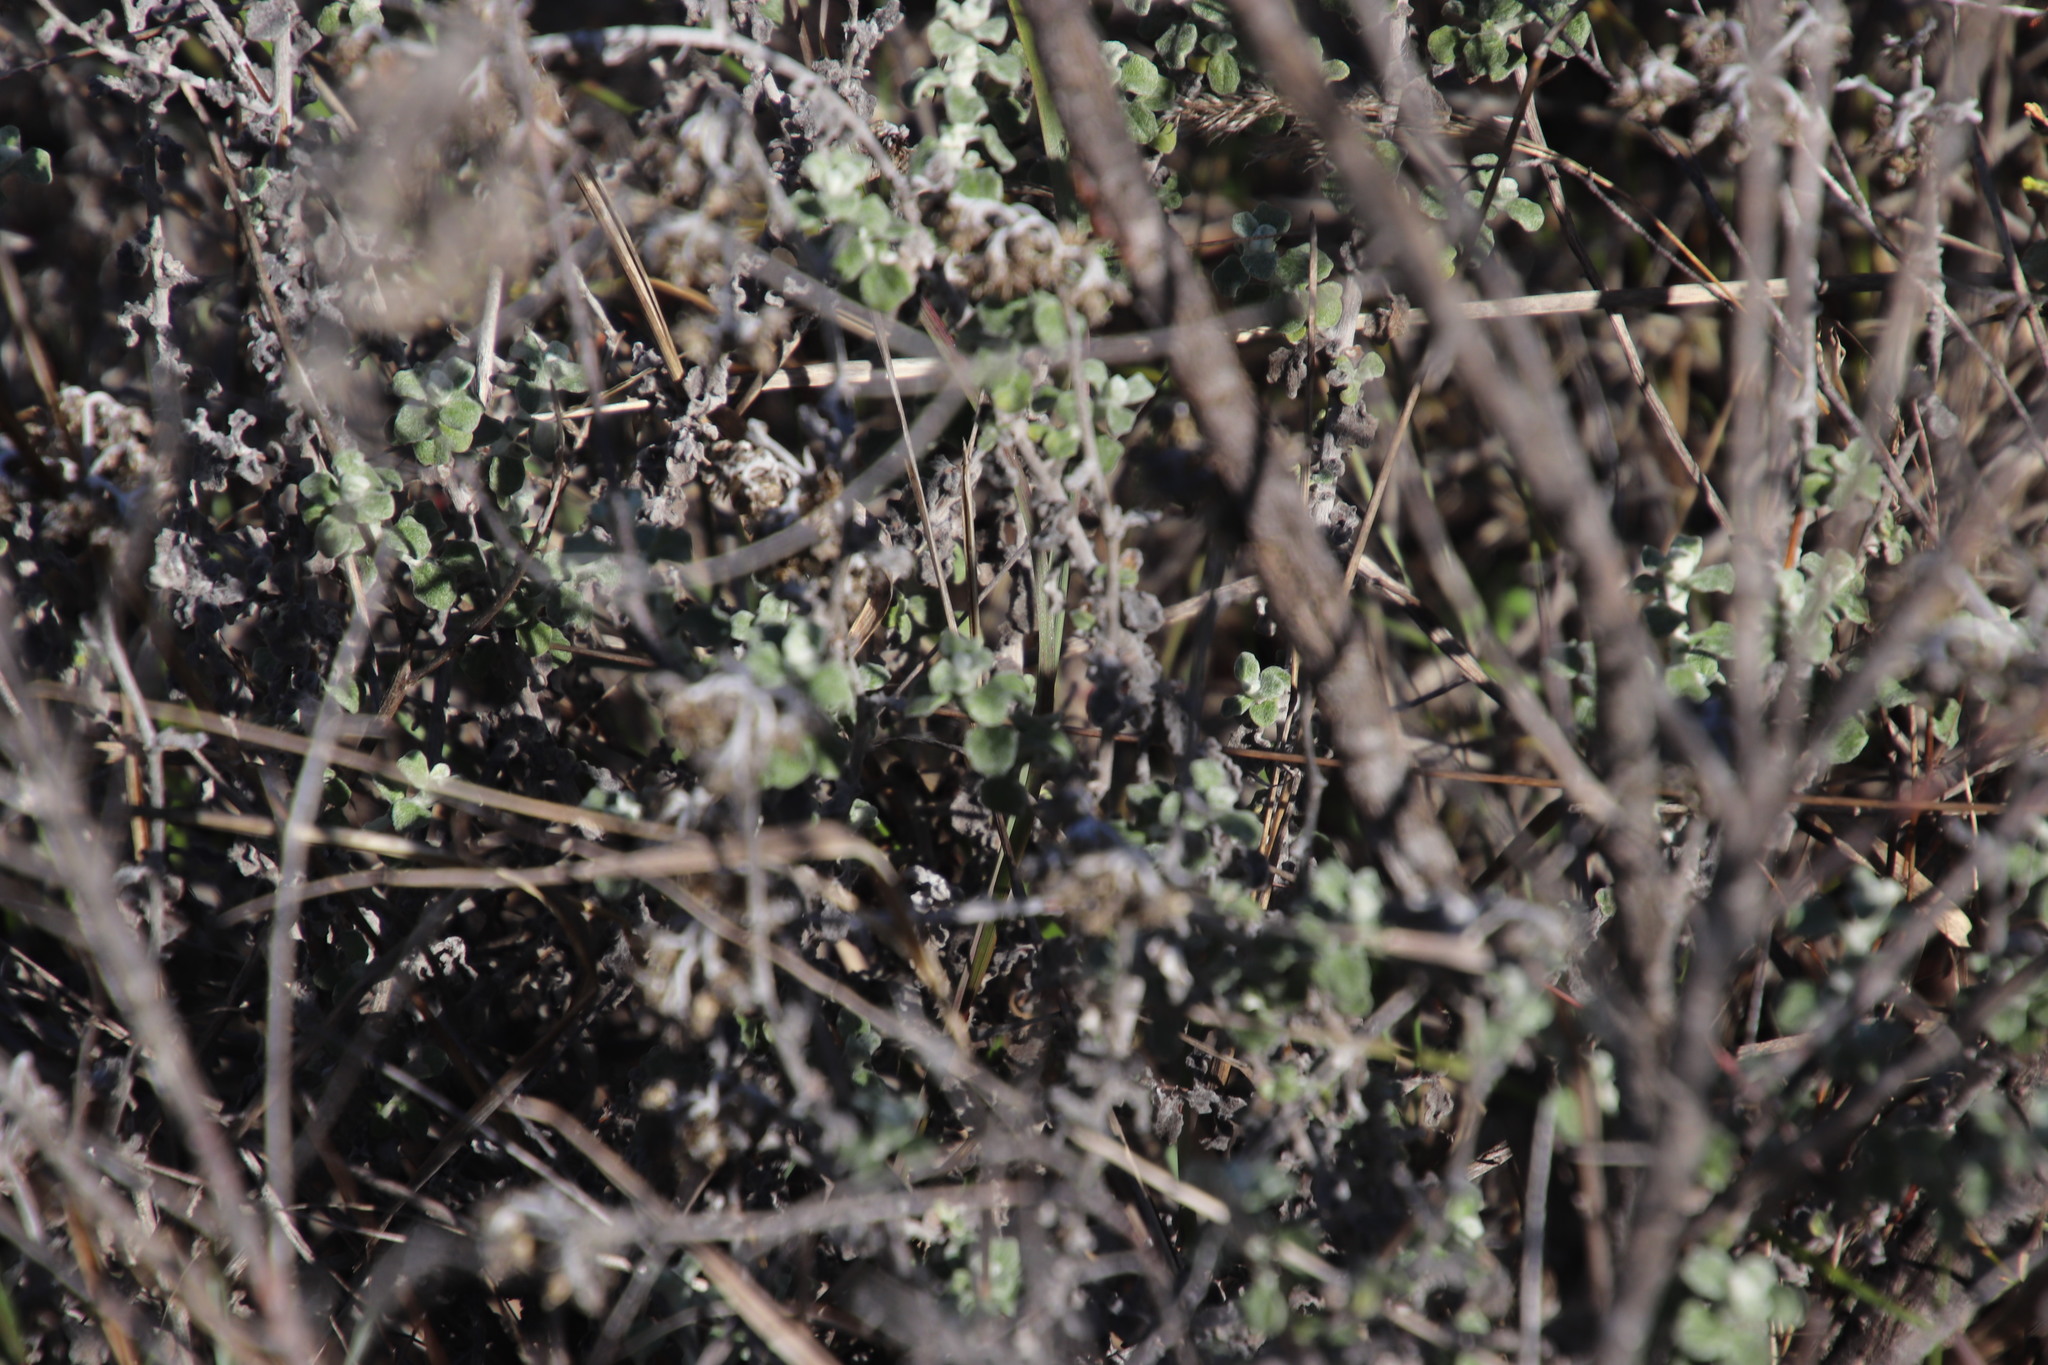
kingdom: Plantae
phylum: Tracheophyta
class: Magnoliopsida
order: Asterales
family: Asteraceae
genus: Helichrysum
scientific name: Helichrysum pandurifolium
